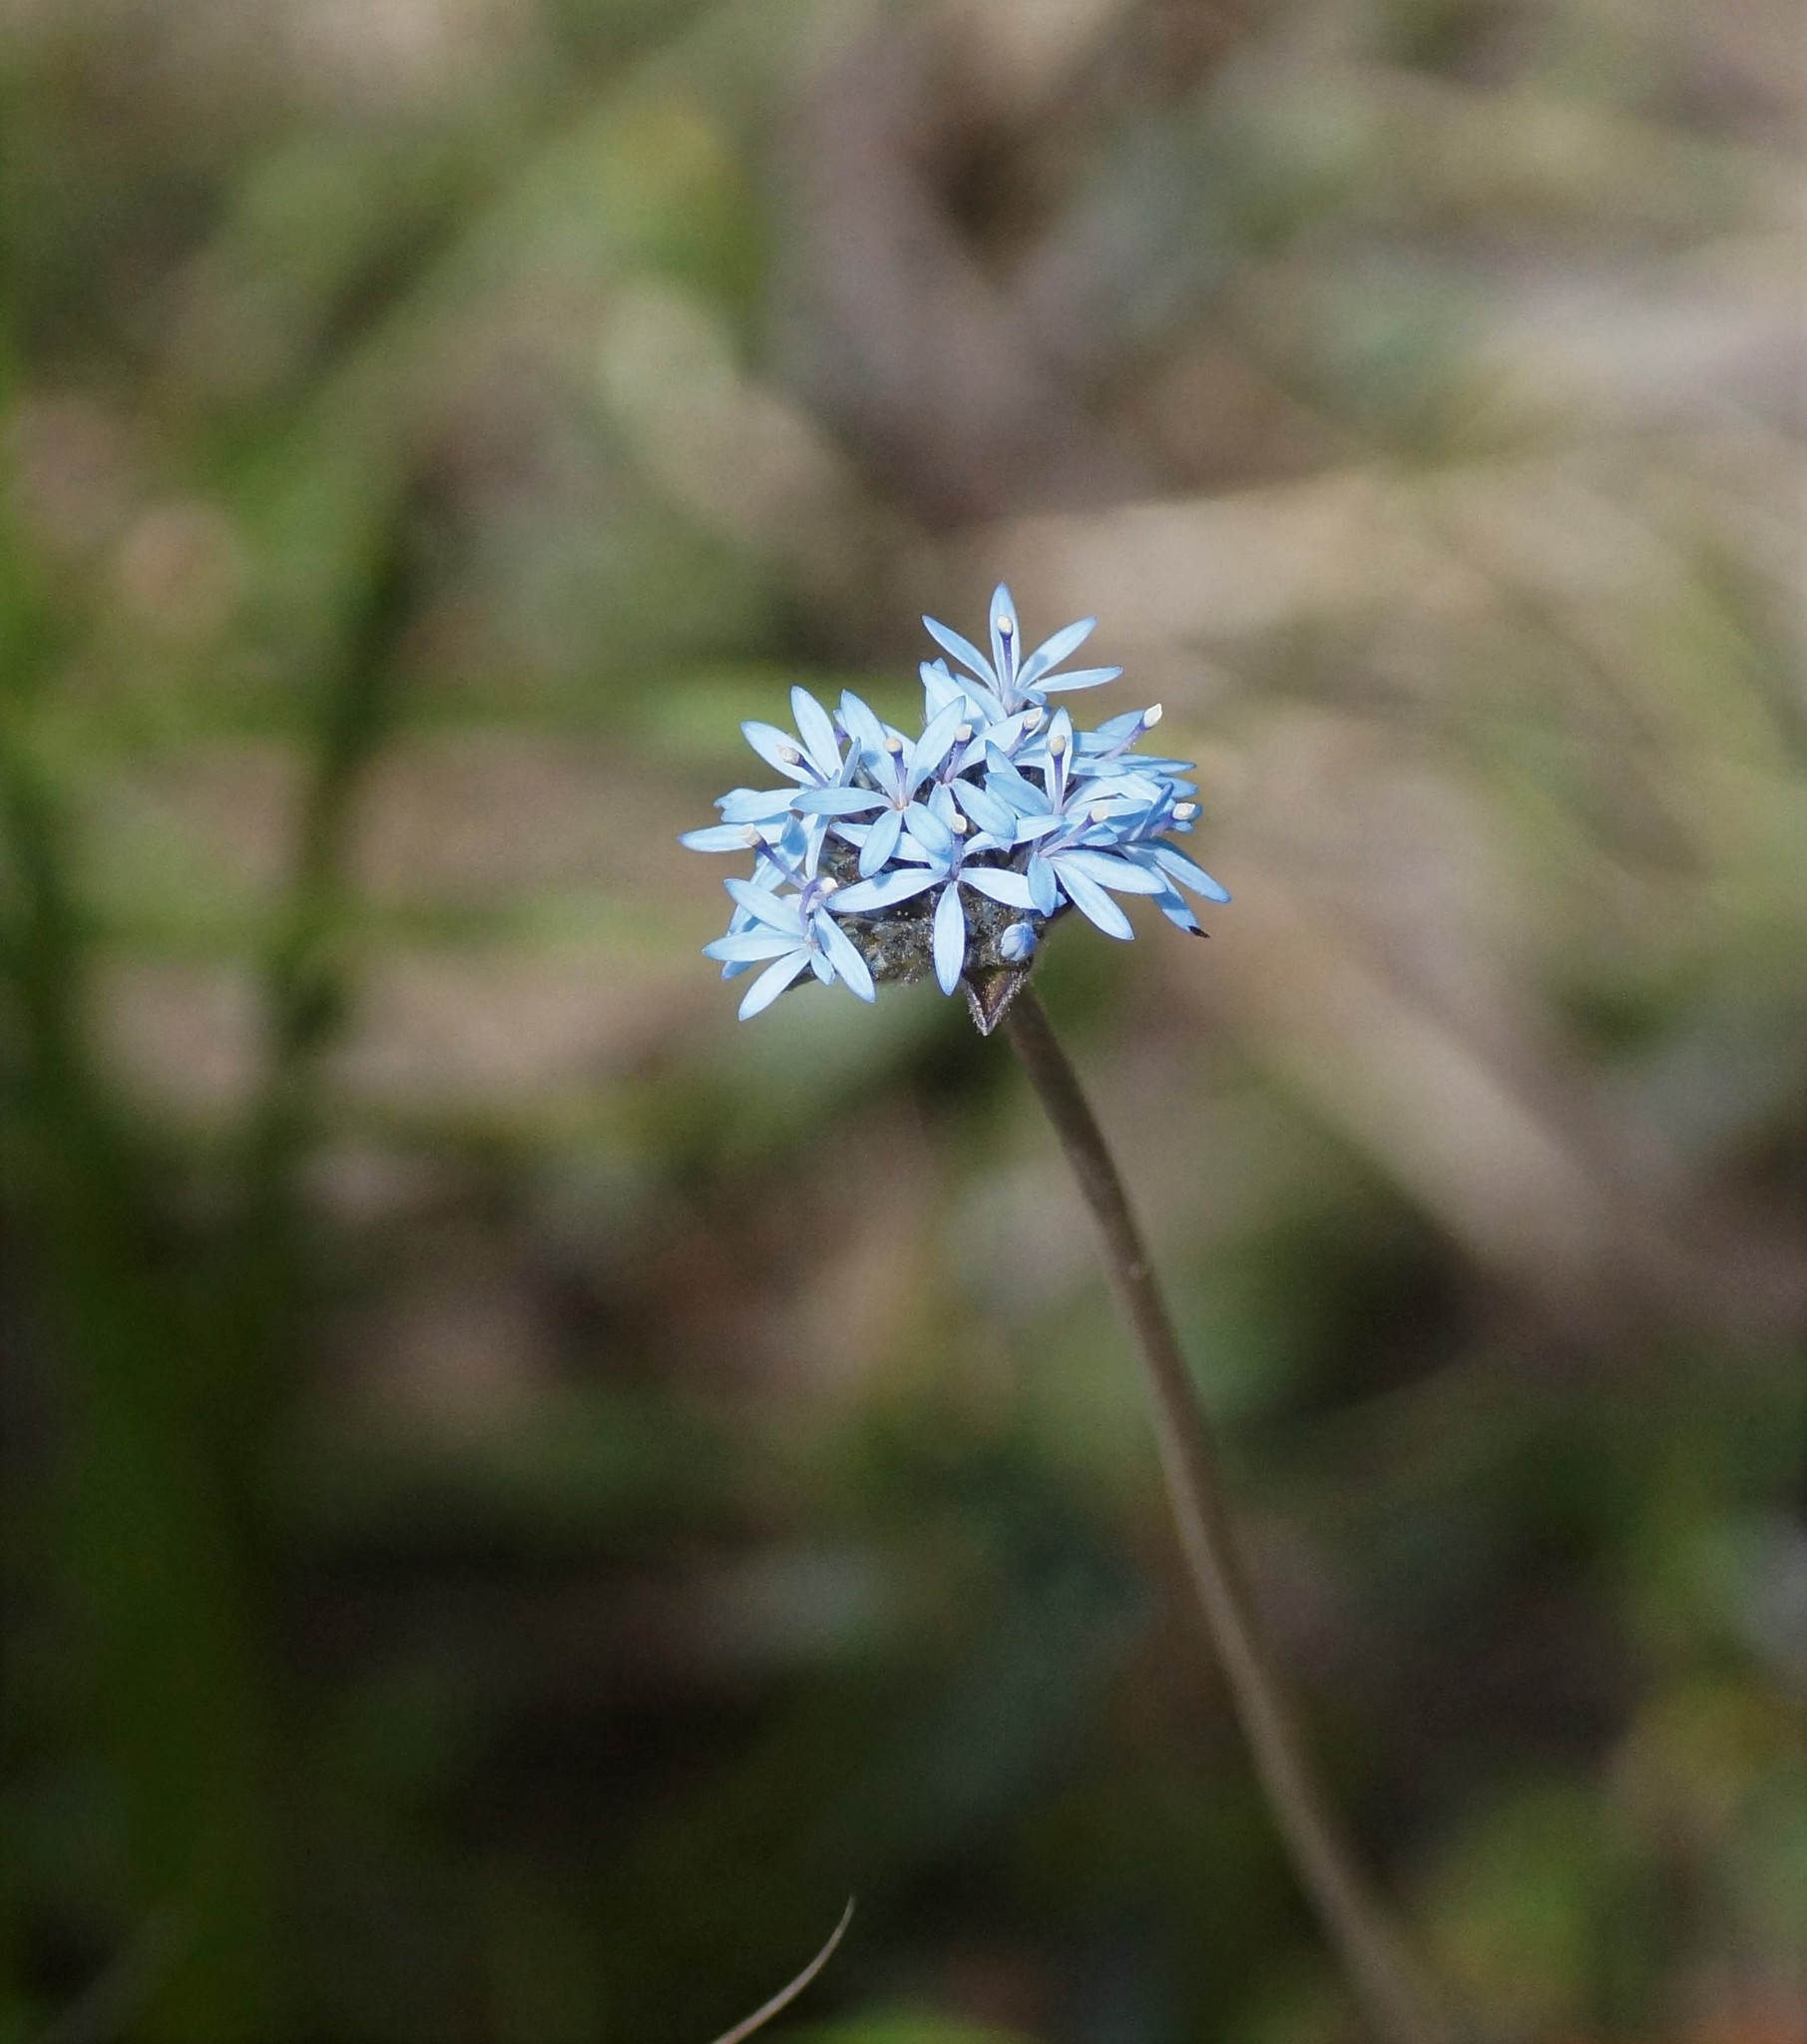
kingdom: Plantae
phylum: Tracheophyta
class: Magnoliopsida
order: Asterales
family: Goodeniaceae
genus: Brunonia
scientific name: Brunonia australis
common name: Blue pincushion
